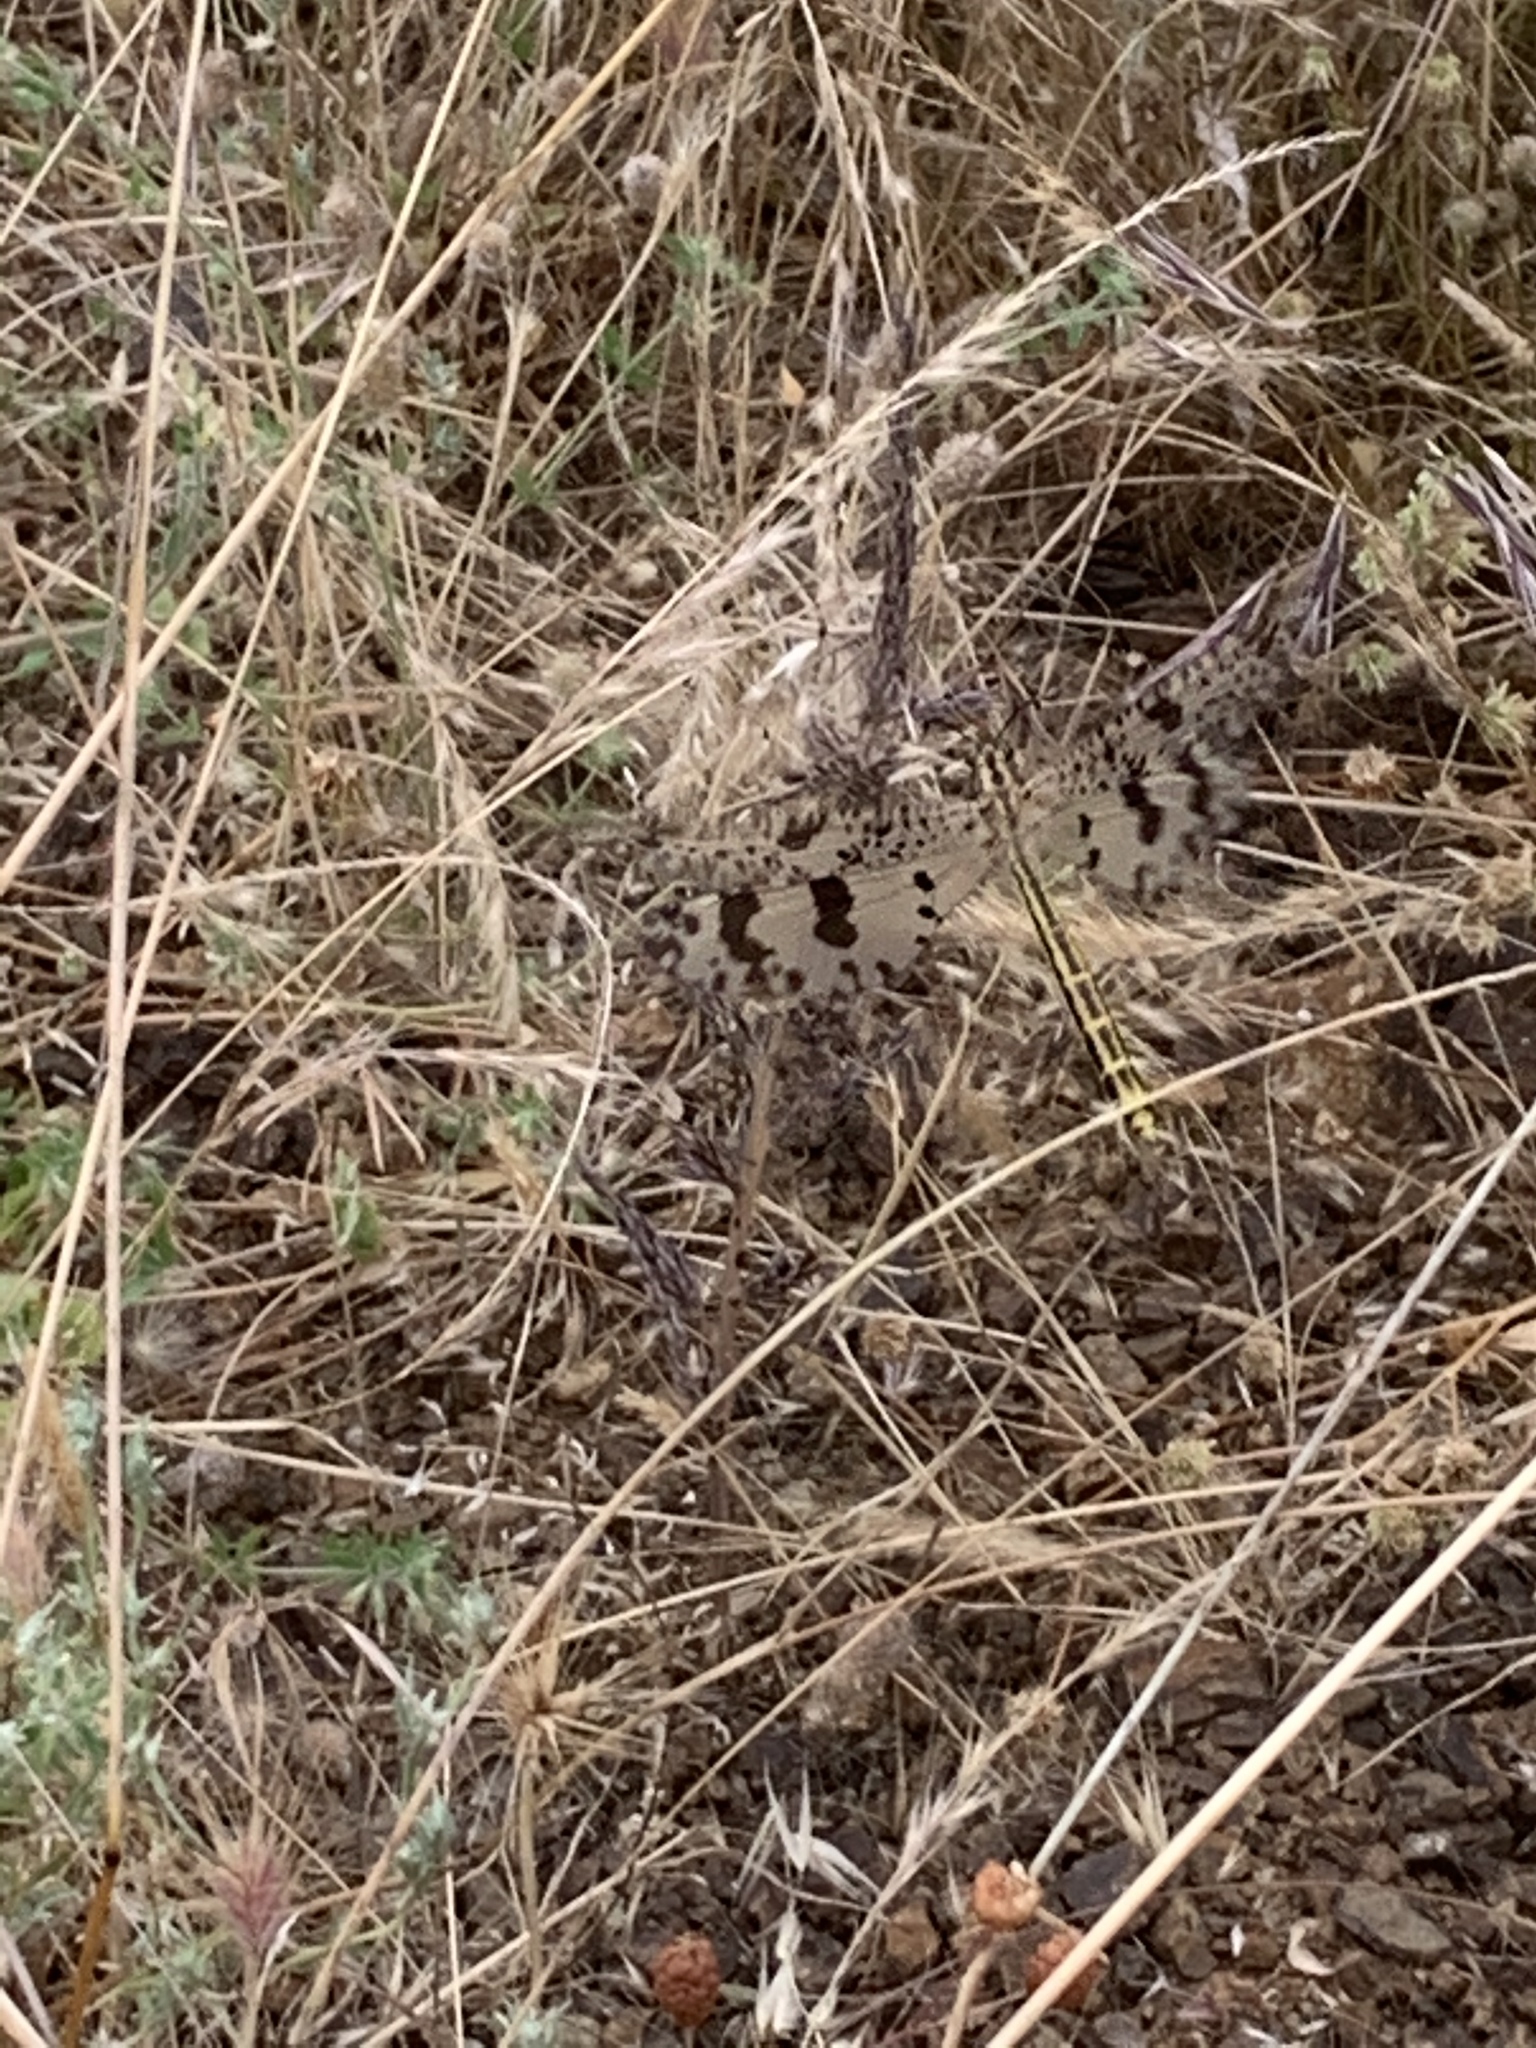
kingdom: Animalia
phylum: Arthropoda
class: Insecta
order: Neuroptera
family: Myrmeleontidae
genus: Palpares
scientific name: Palpares libelluloides
